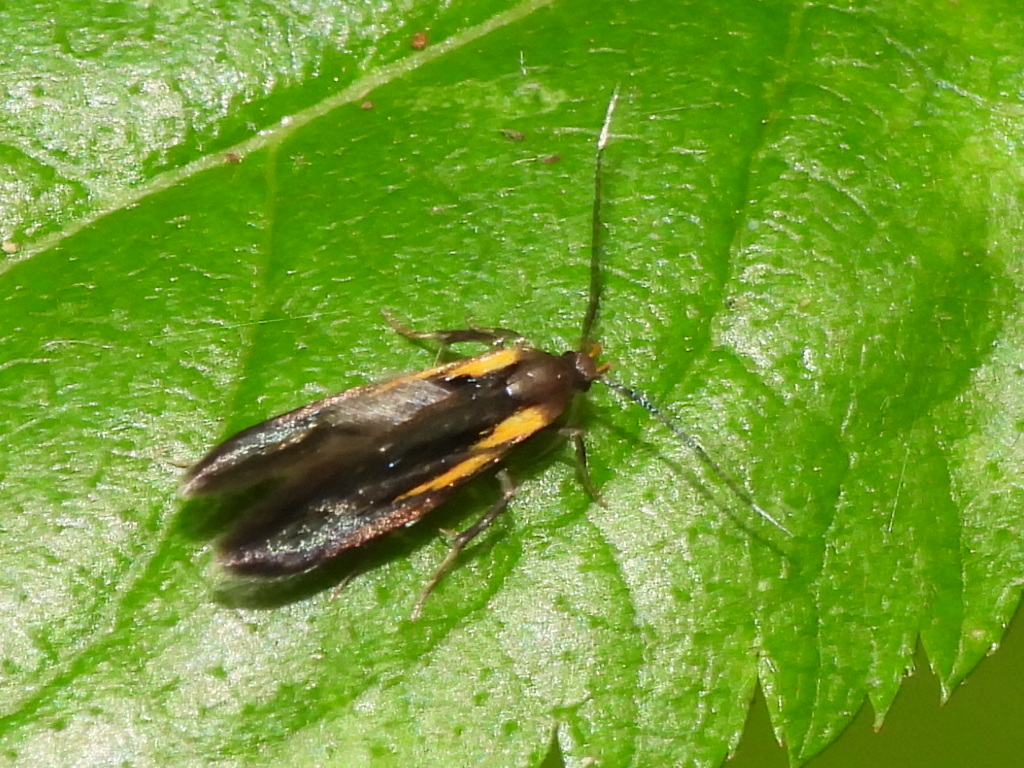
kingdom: Animalia
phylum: Arthropoda
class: Insecta
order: Lepidoptera
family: Oecophoridae
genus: Mathildana
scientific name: Mathildana newmanella
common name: Newman's mathildana moth
